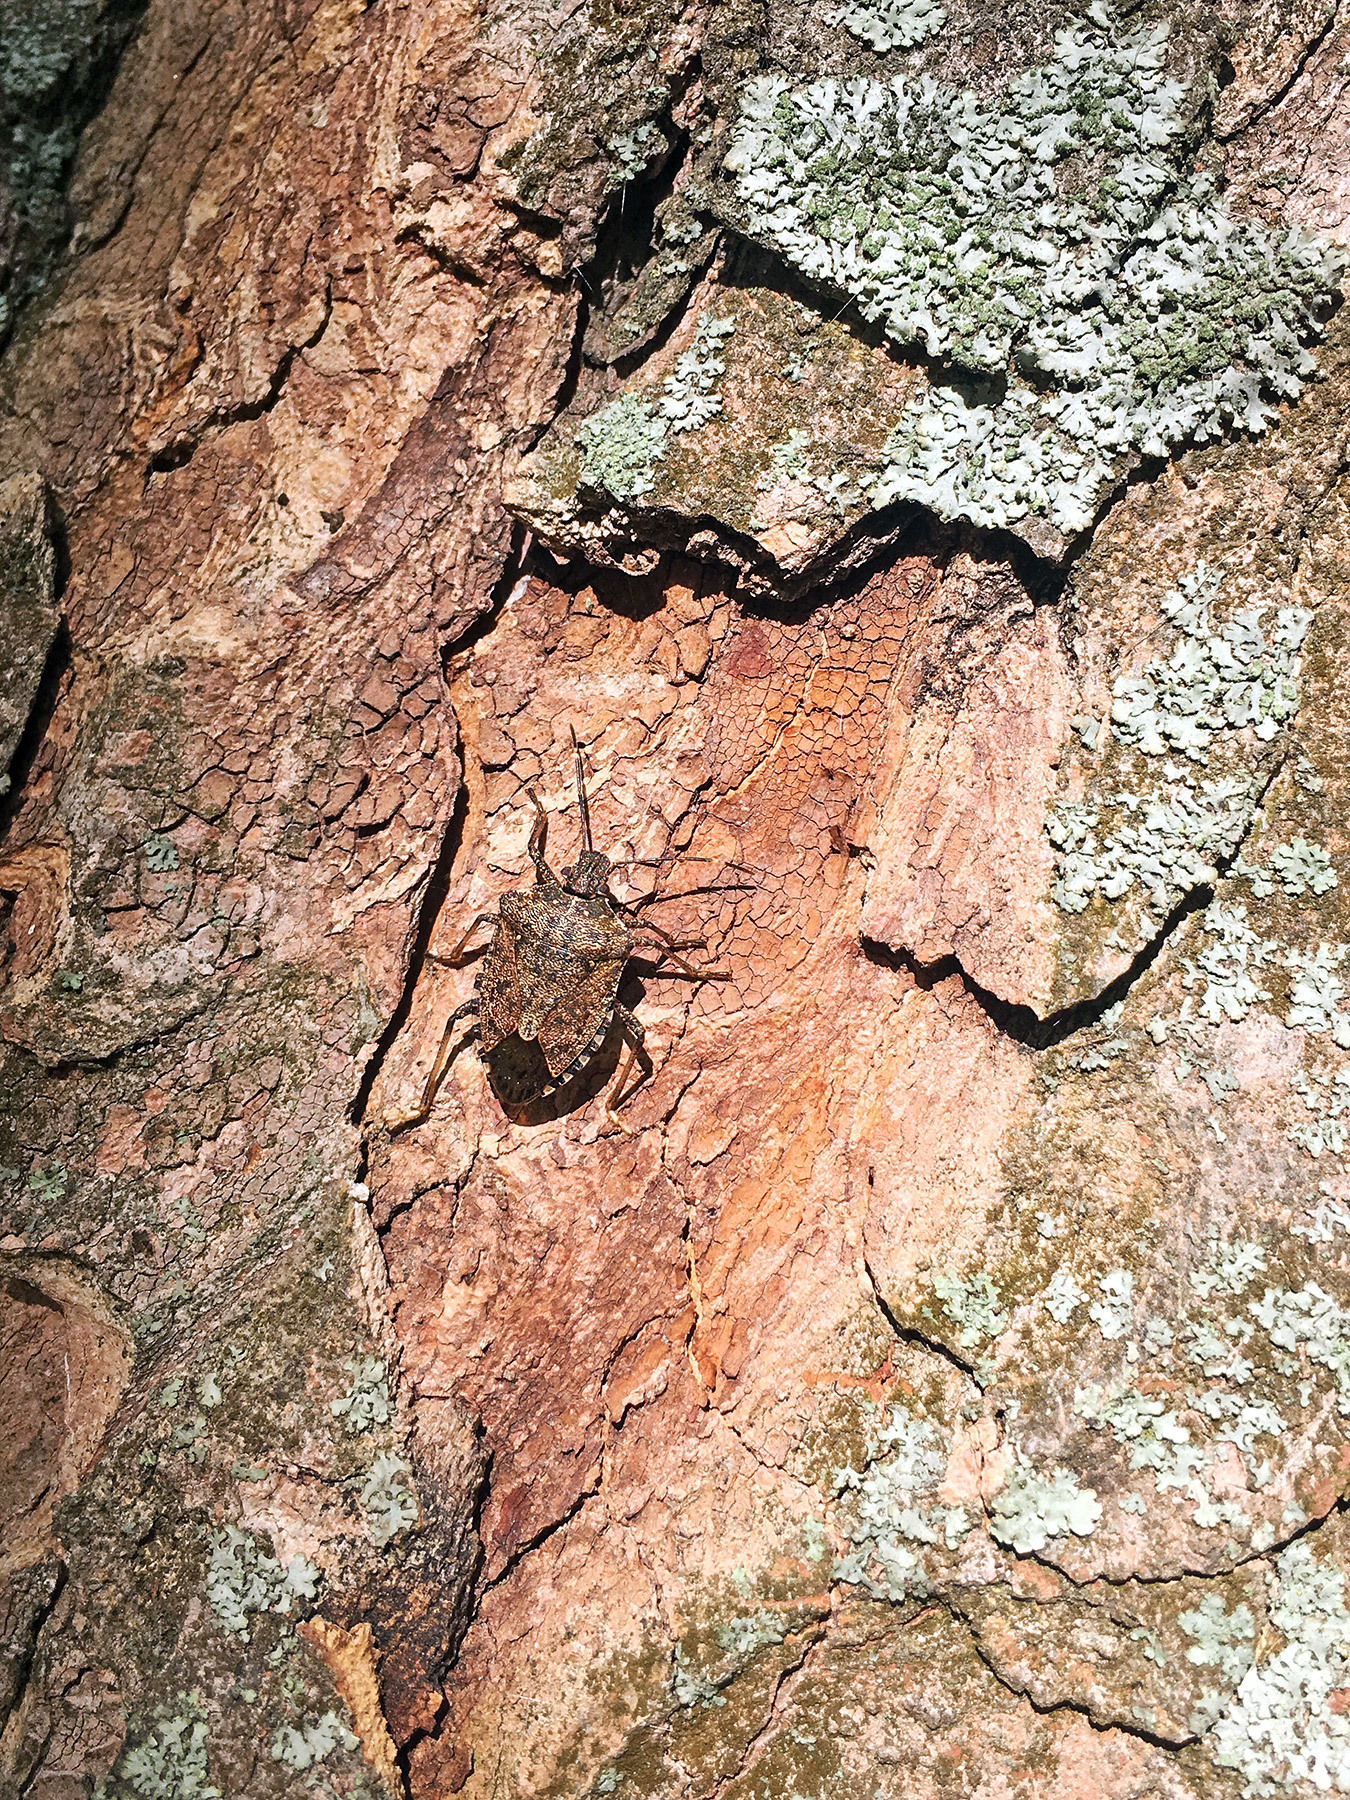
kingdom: Animalia
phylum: Arthropoda
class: Insecta
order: Hemiptera
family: Pentatomidae
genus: Halyomorpha
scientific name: Halyomorpha halys
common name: Brown marmorated stink bug
